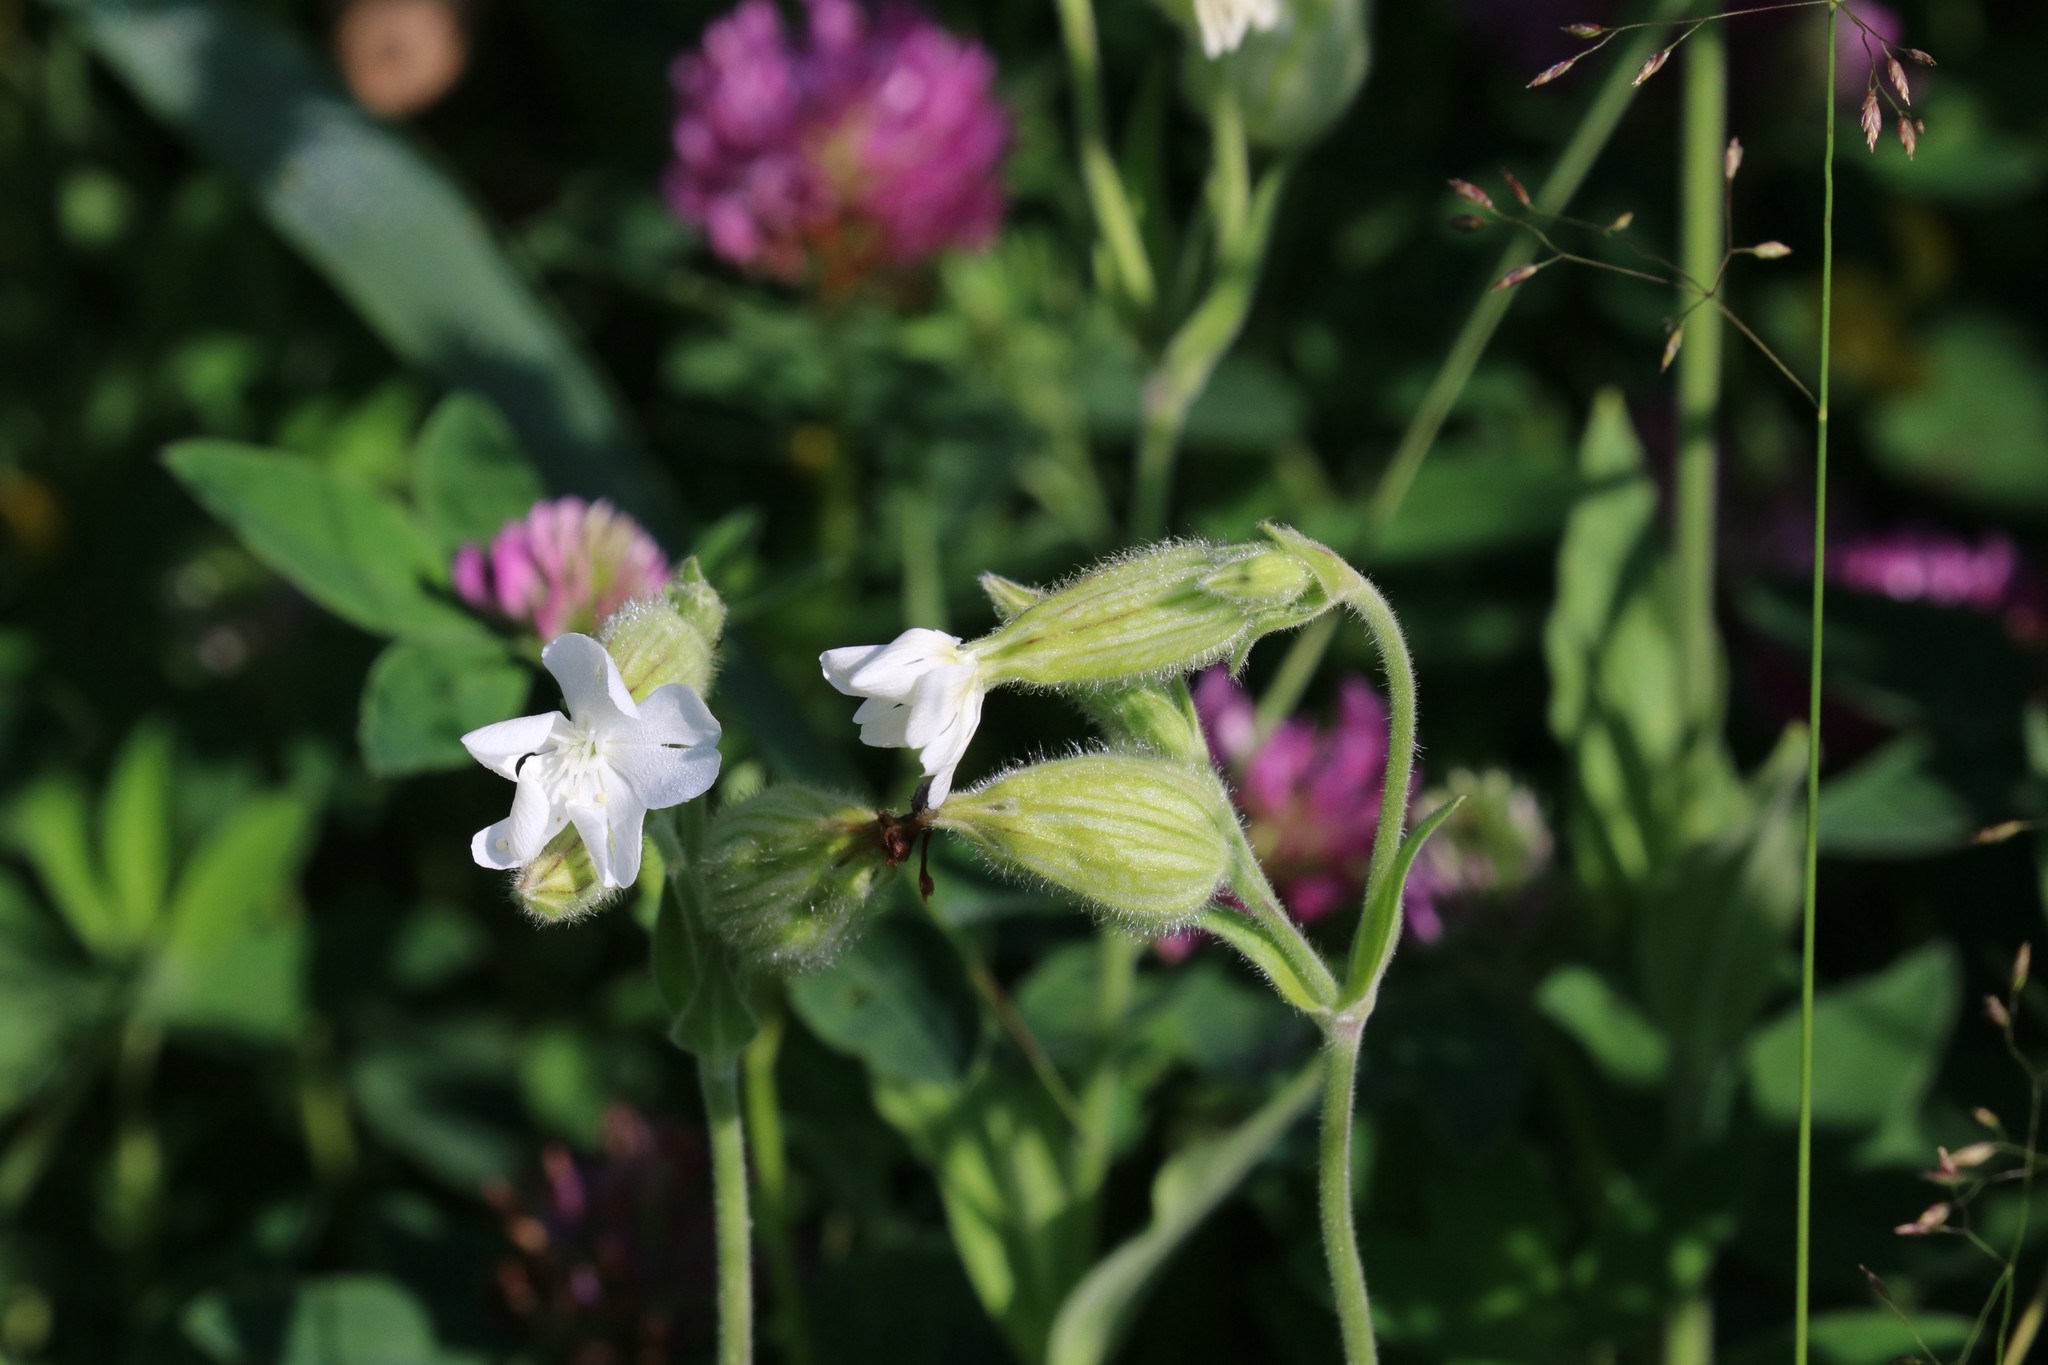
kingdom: Plantae
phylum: Tracheophyta
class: Magnoliopsida
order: Caryophyllales
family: Caryophyllaceae
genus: Silene
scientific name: Silene latifolia
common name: White campion
